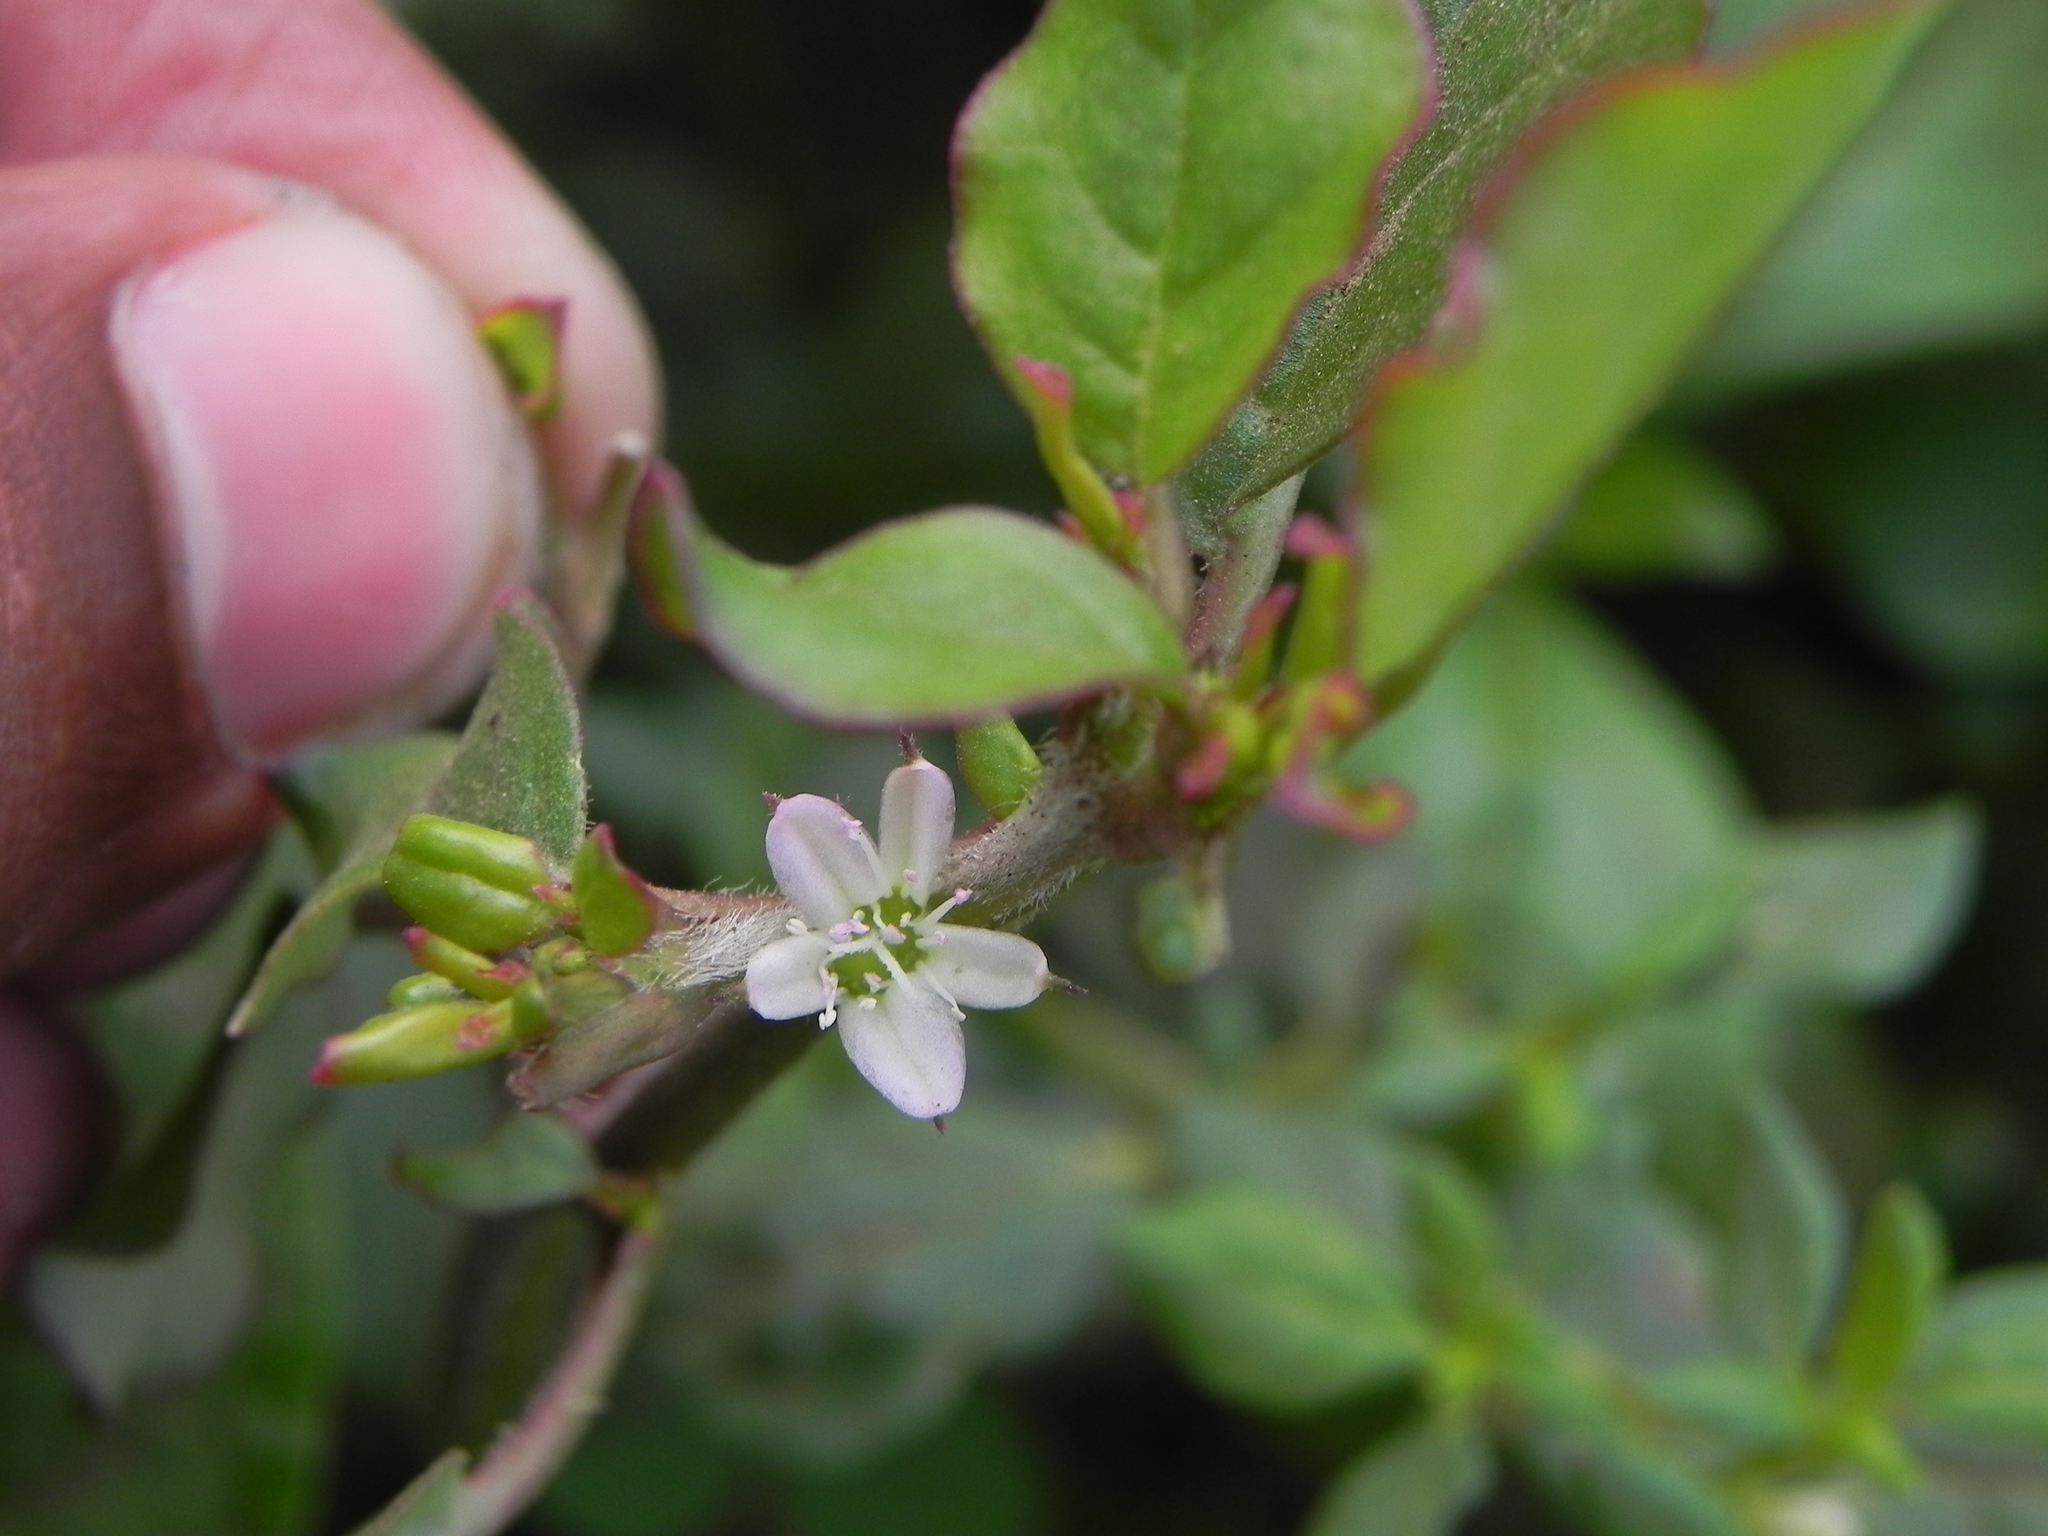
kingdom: Plantae
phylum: Tracheophyta
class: Magnoliopsida
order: Caryophyllales
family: Aizoaceae
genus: Trianthema
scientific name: Trianthema portulacastrum
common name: Desert horsepurslane
